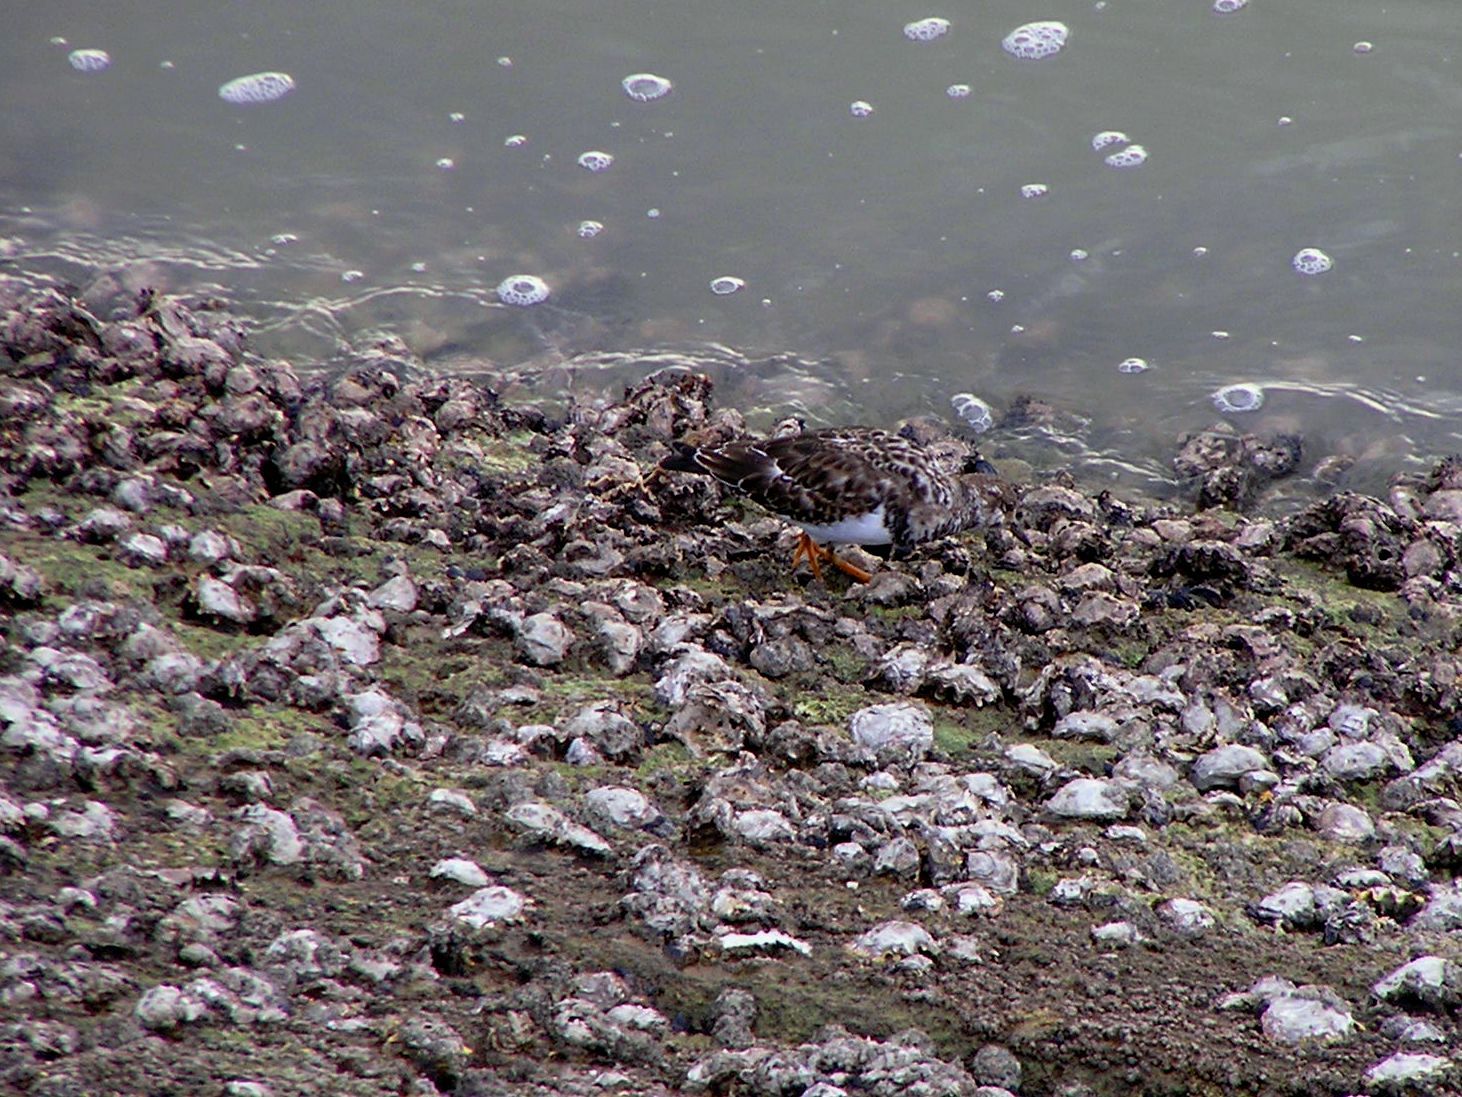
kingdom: Animalia
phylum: Chordata
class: Aves
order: Charadriiformes
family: Scolopacidae
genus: Arenaria
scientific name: Arenaria interpres
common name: Ruddy turnstone
